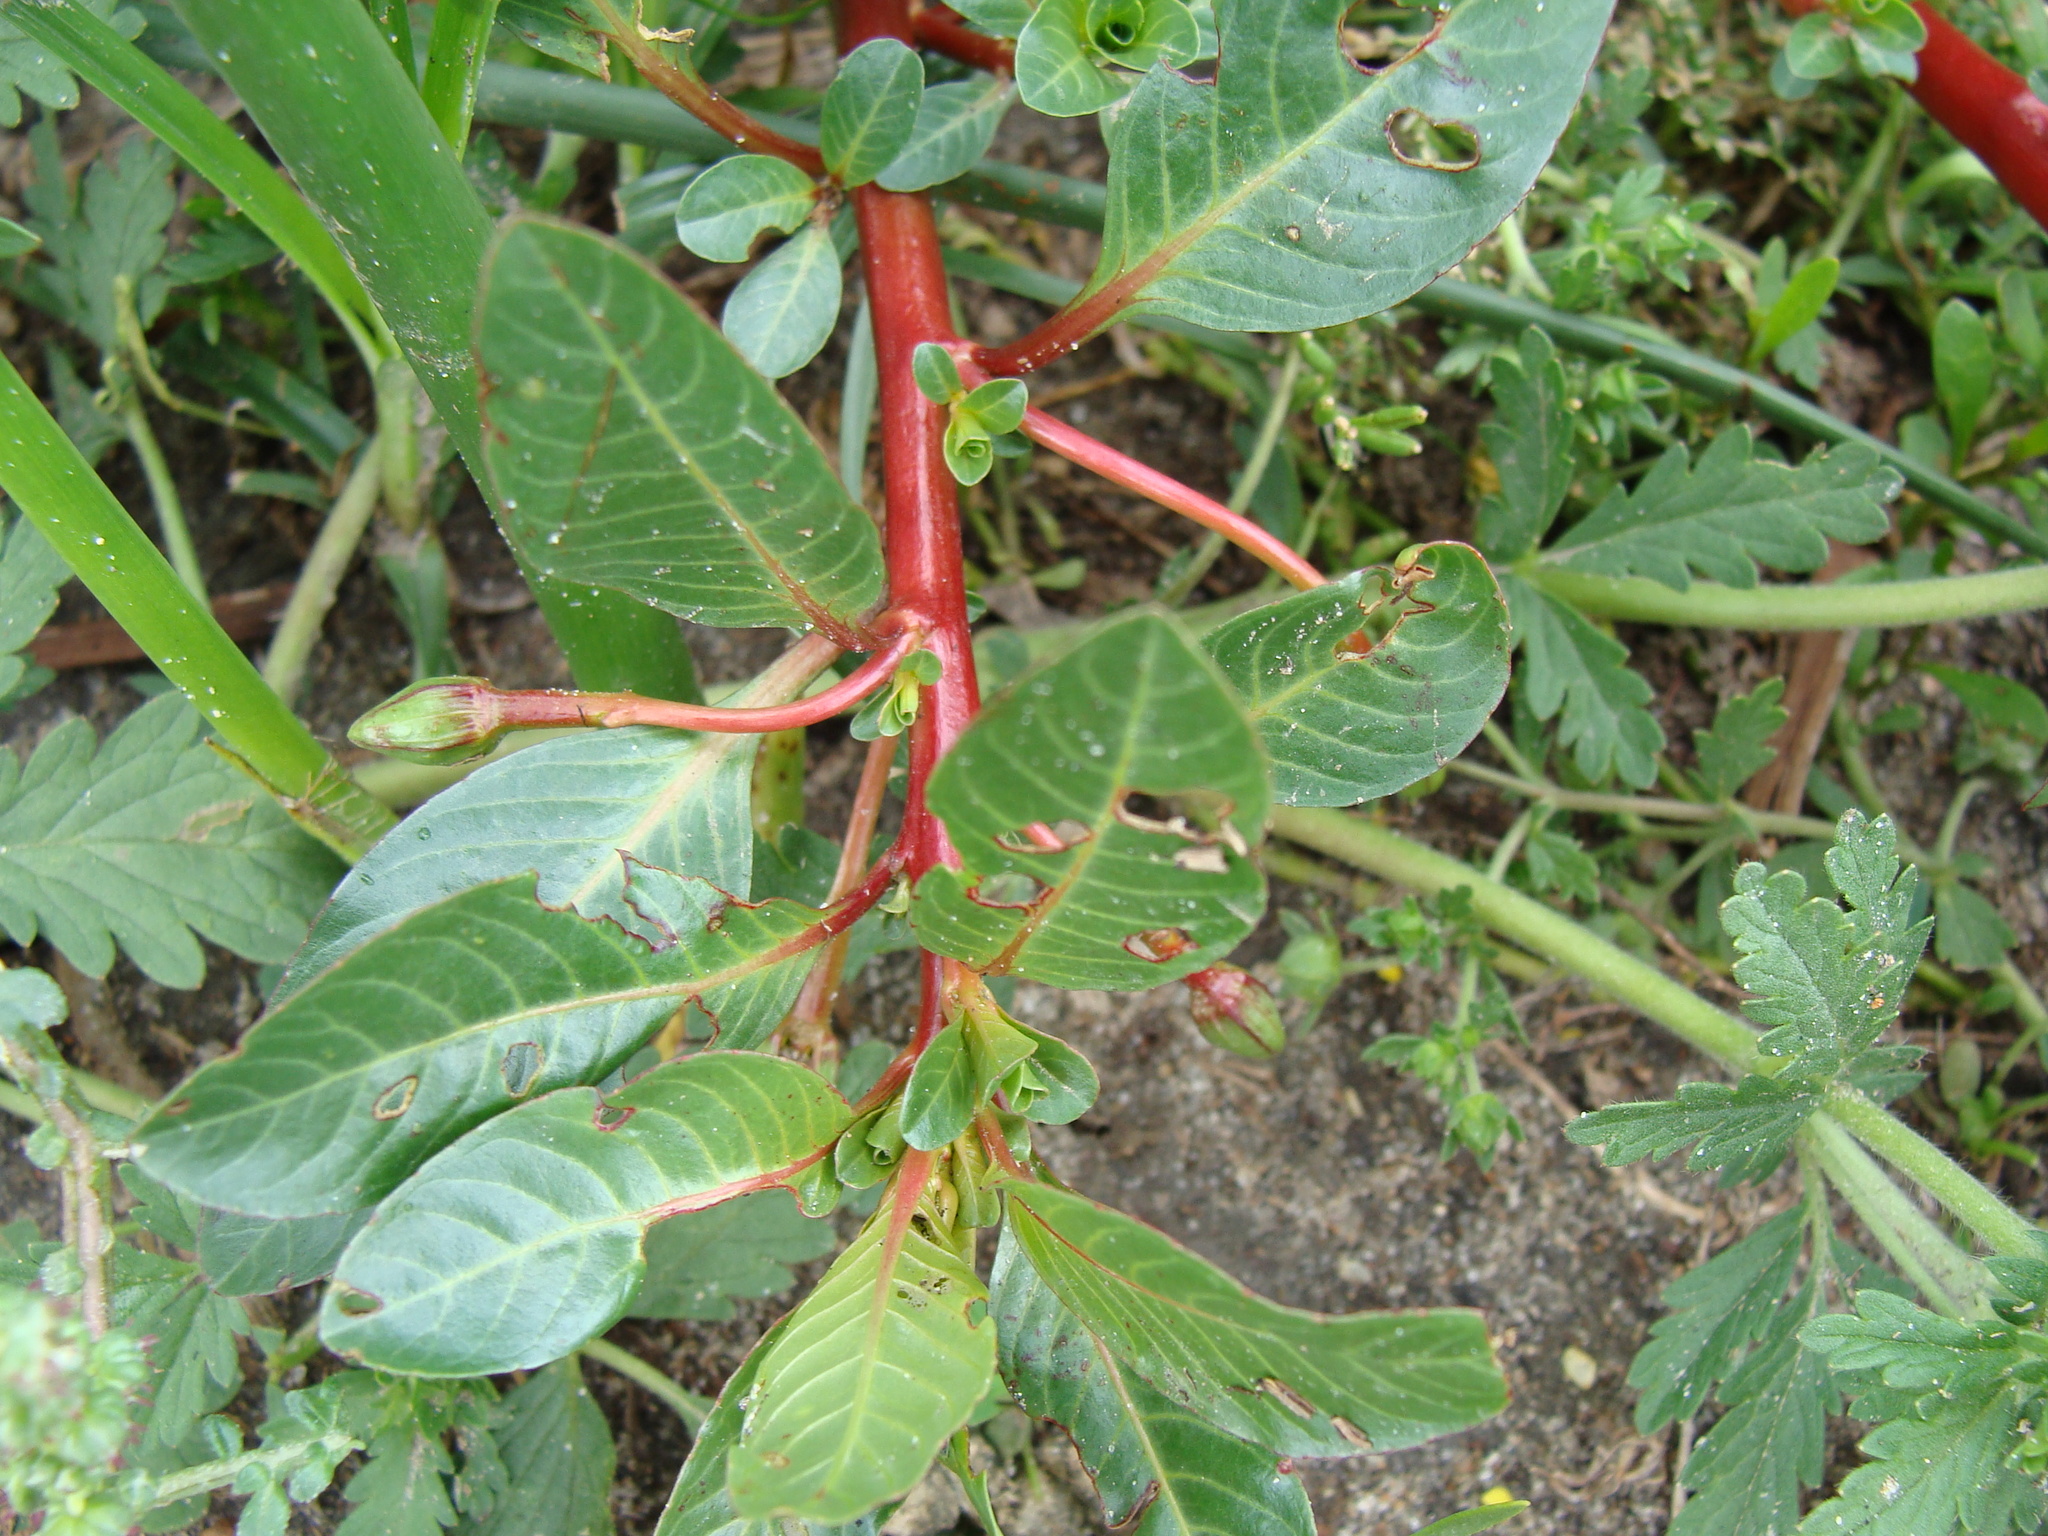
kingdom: Plantae
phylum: Tracheophyta
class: Magnoliopsida
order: Myrtales
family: Onagraceae
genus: Ludwigia
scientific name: Ludwigia peploides
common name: Floating primrose-willow
